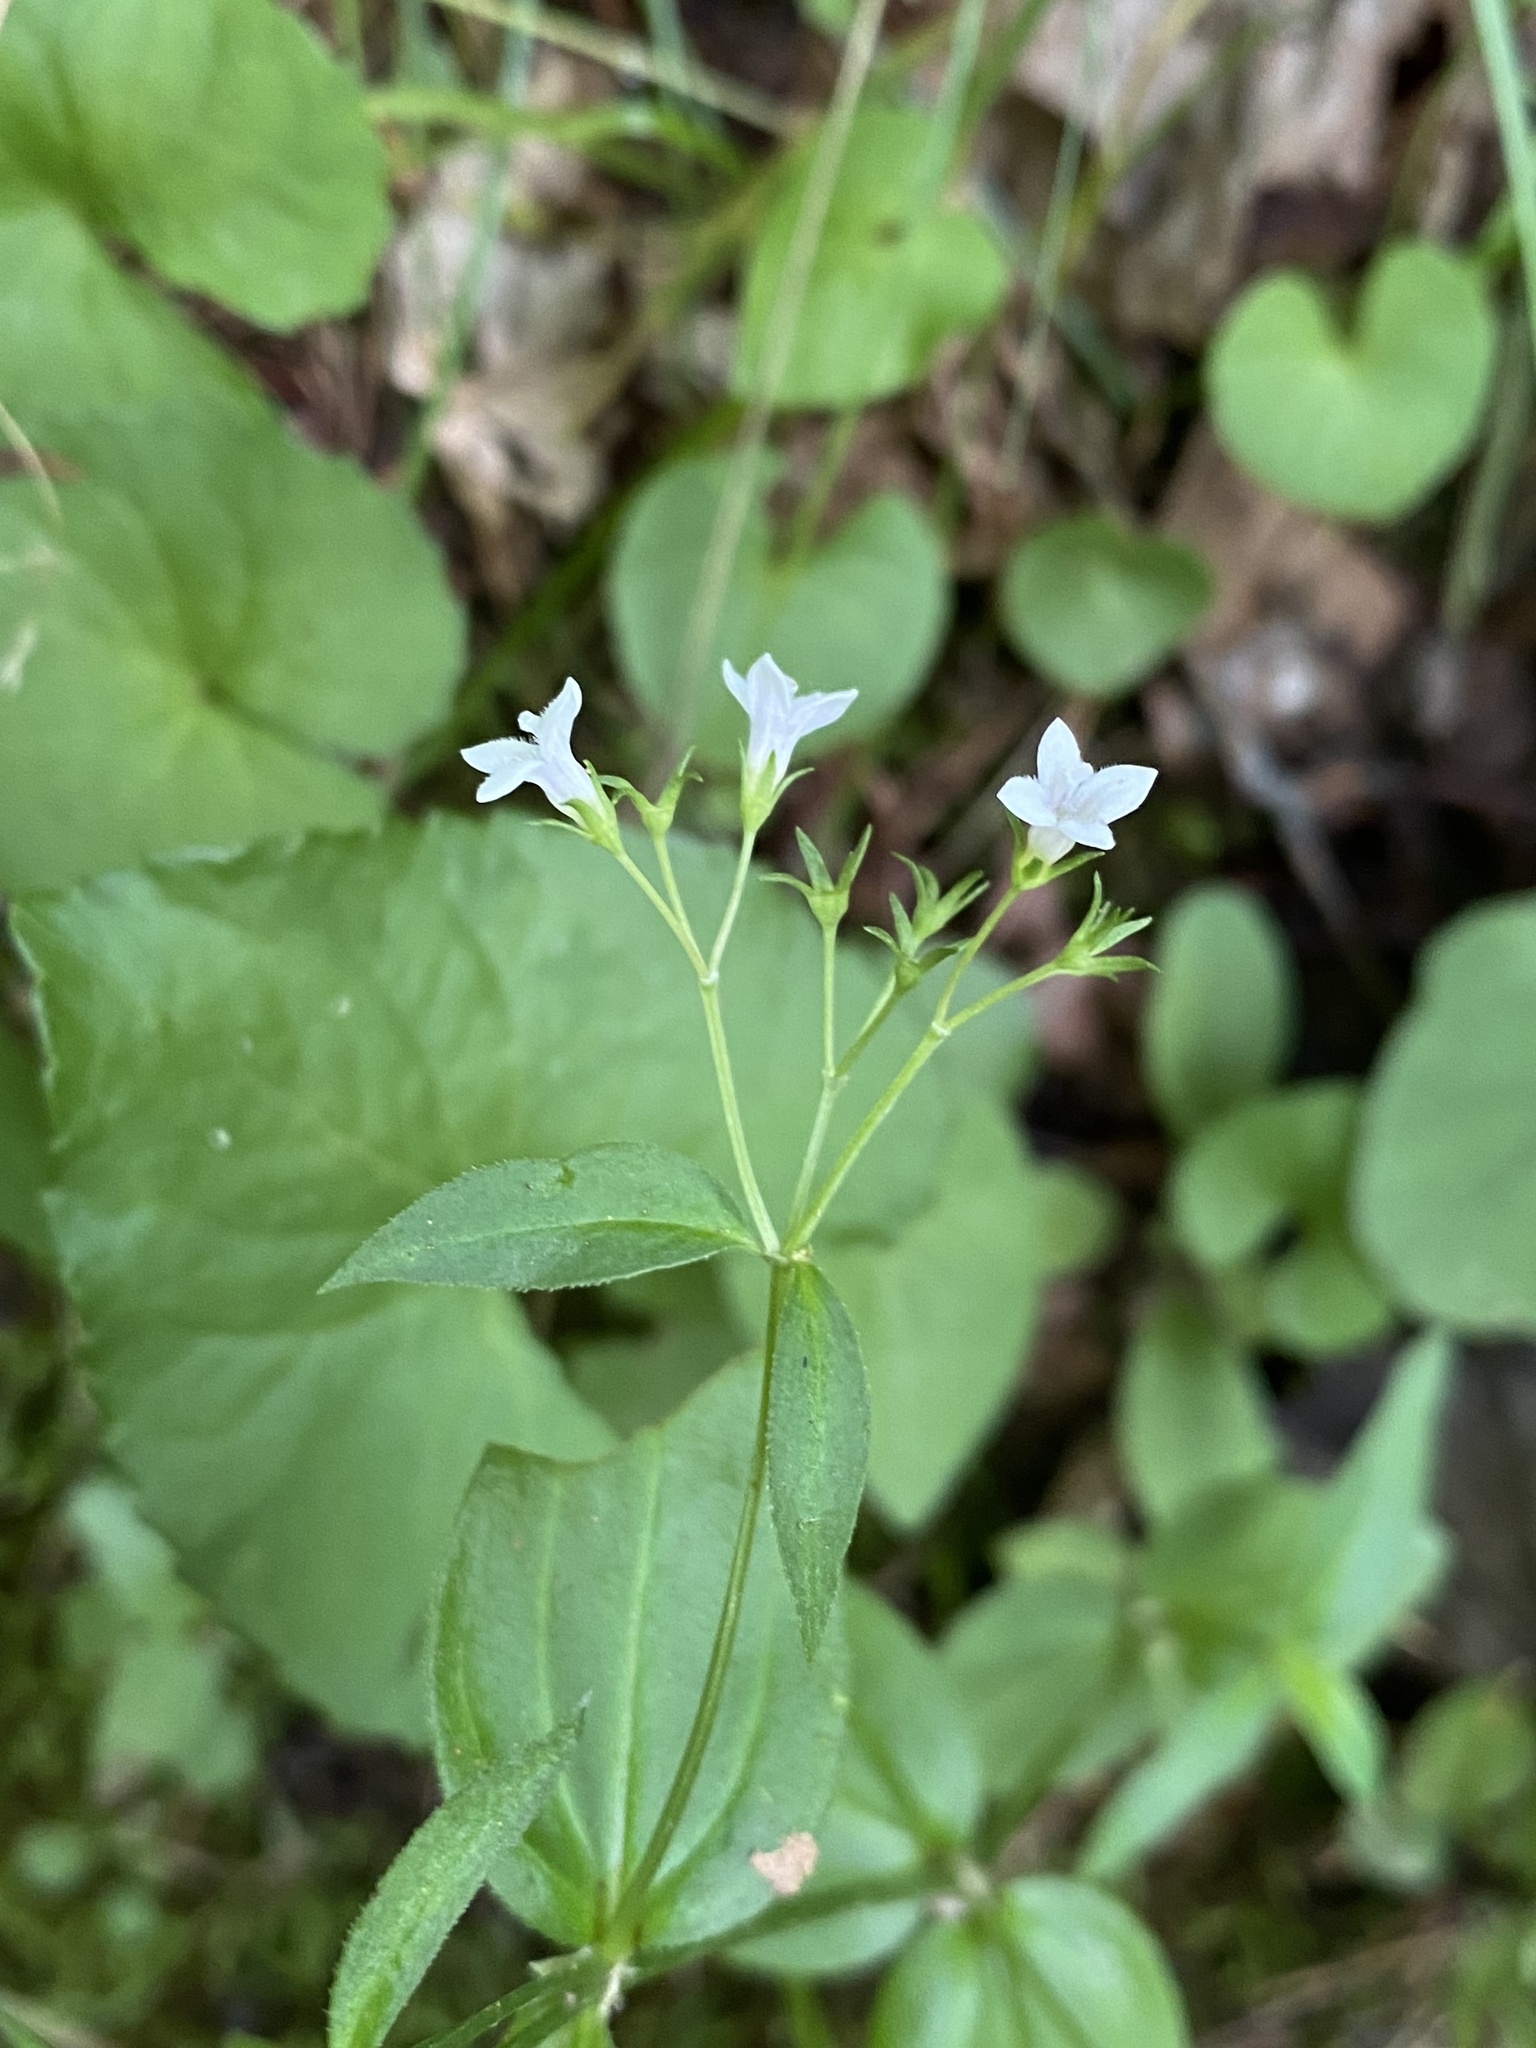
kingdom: Plantae
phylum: Tracheophyta
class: Magnoliopsida
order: Gentianales
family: Rubiaceae
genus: Houstonia
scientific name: Houstonia purpurea
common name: Summer bluet
